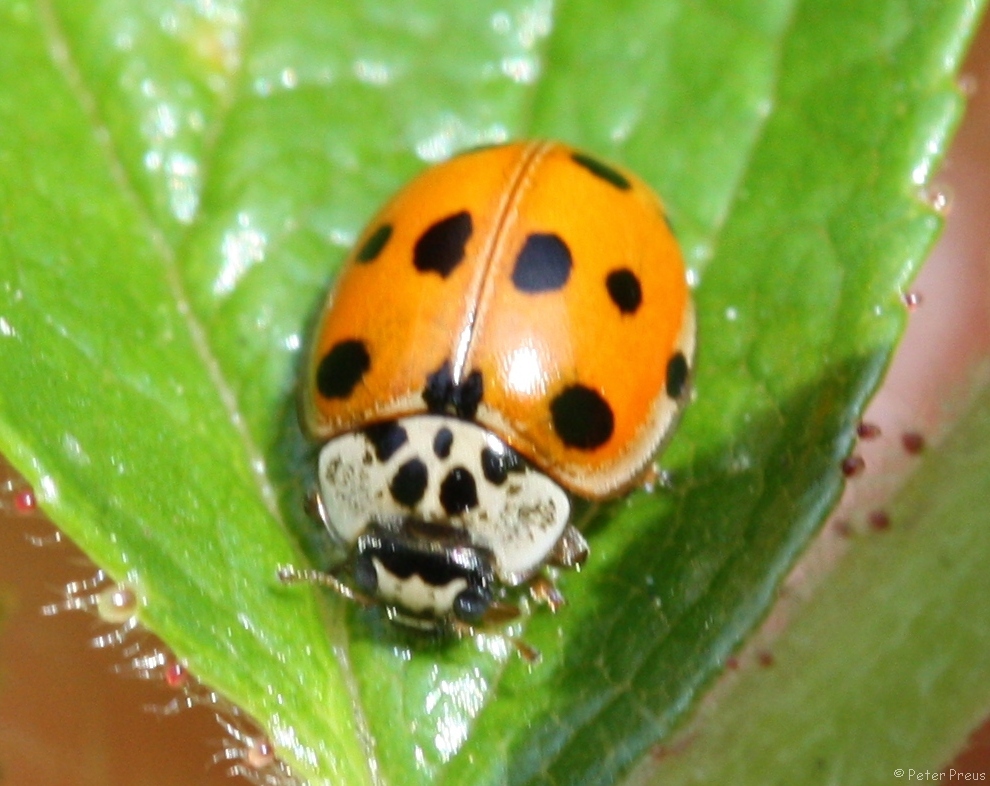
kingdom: Animalia
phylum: Arthropoda
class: Insecta
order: Coleoptera
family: Coccinellidae
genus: Adalia
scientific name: Adalia decempunctata
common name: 10-spot ladybird
